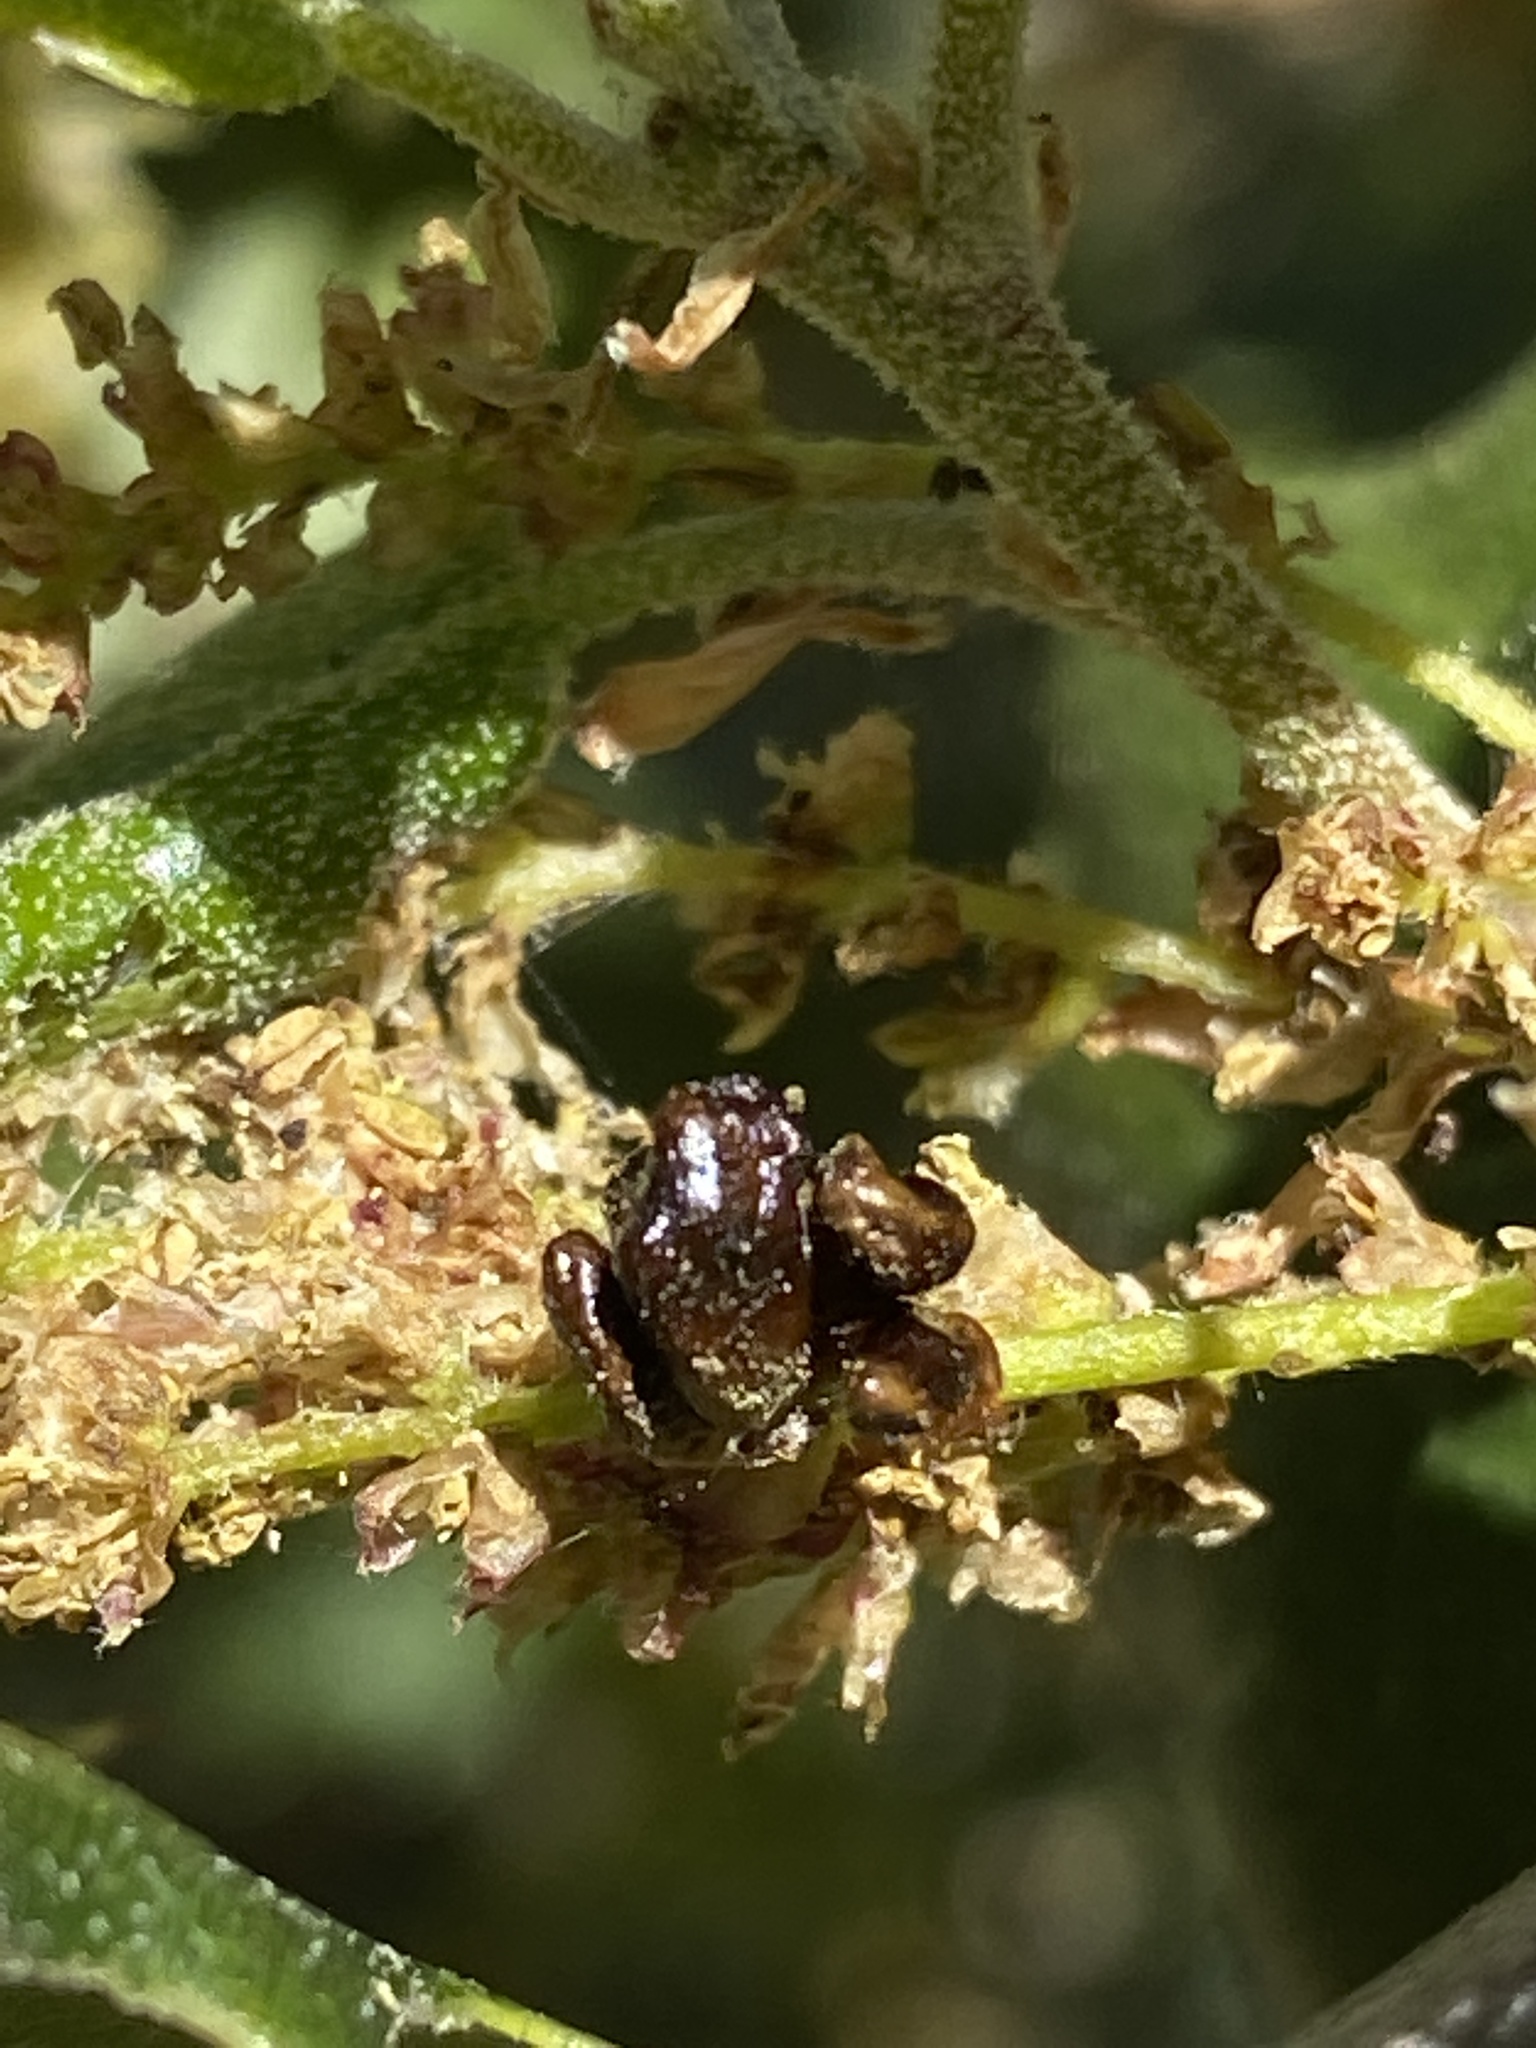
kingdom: Animalia
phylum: Arthropoda
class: Insecta
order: Hymenoptera
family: Cynipidae
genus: Dryocosmus
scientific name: Dryocosmus
